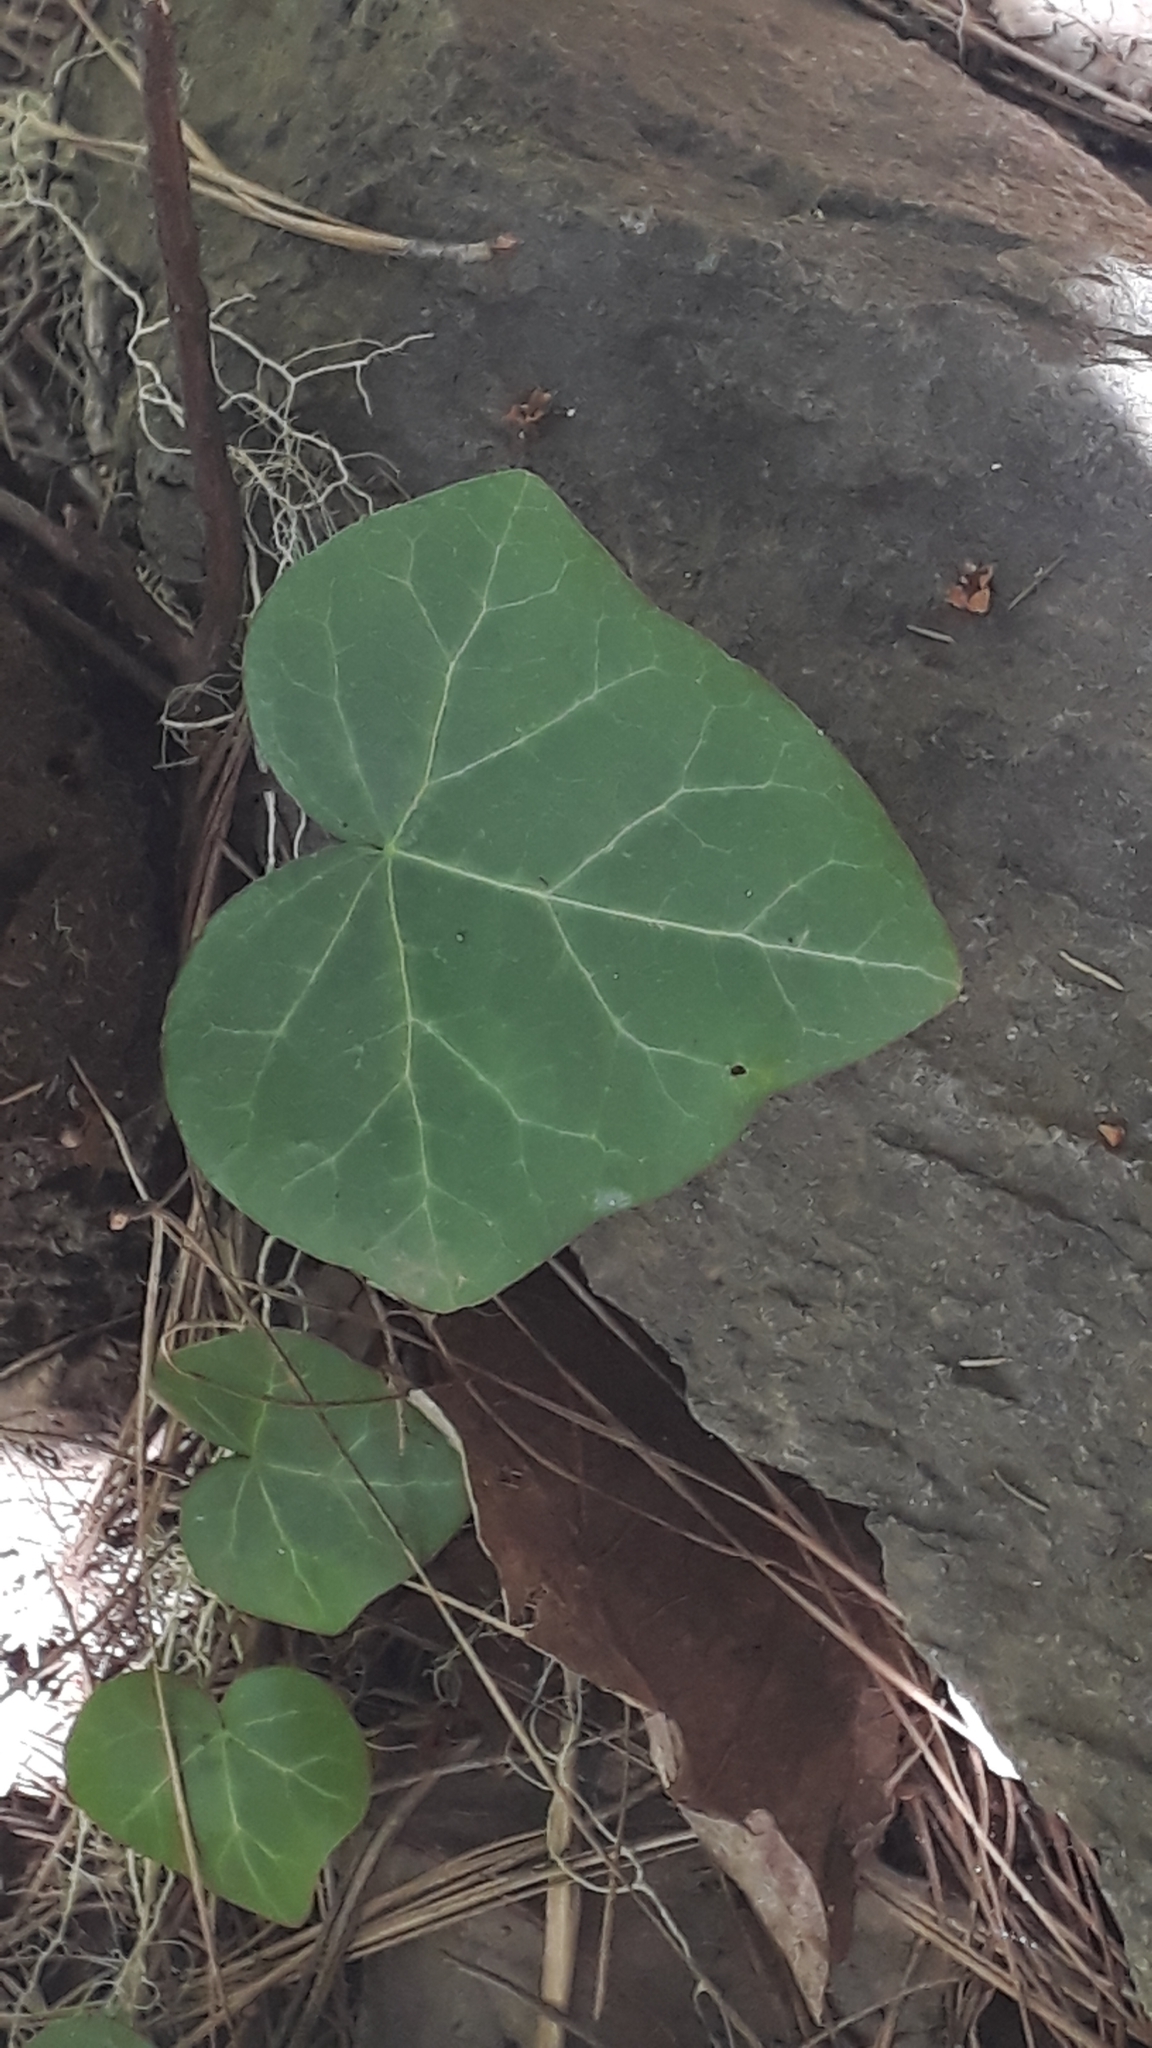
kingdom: Plantae
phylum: Tracheophyta
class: Magnoliopsida
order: Apiales
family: Araliaceae
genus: Hedera
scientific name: Hedera canariensis
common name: Madeira ivy
